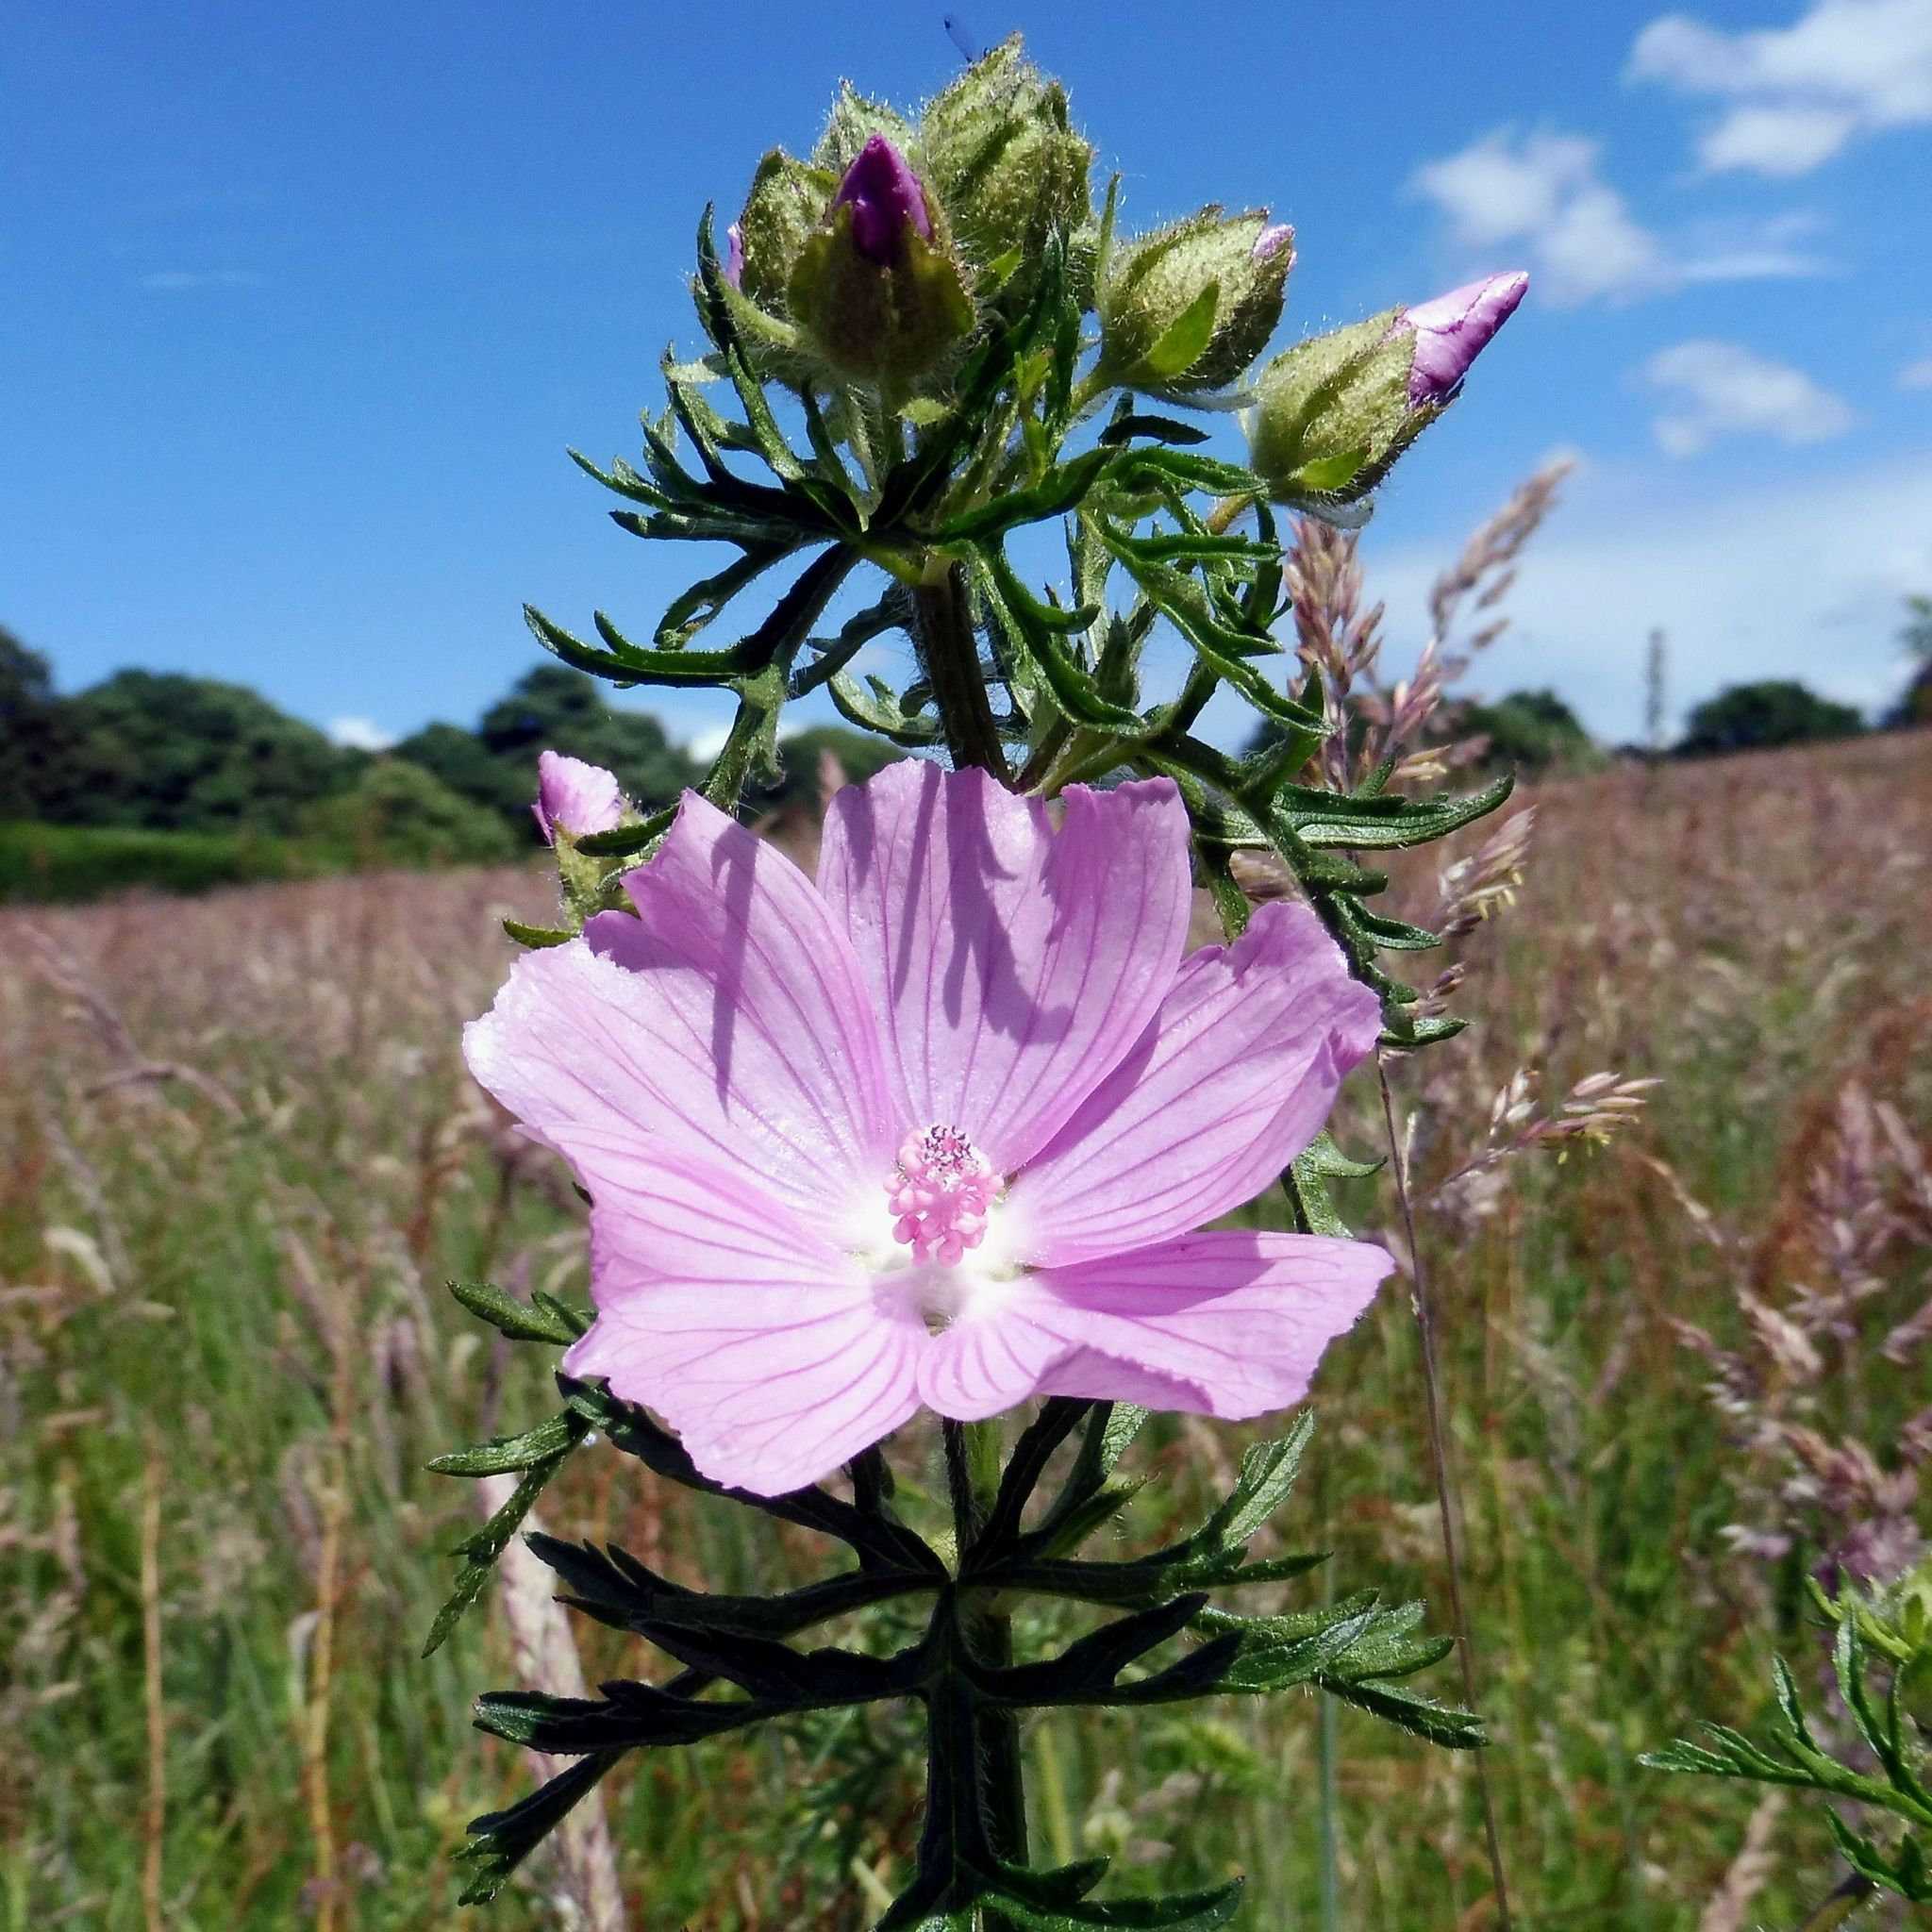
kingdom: Plantae
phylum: Tracheophyta
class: Magnoliopsida
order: Malvales
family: Malvaceae
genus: Malva
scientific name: Malva moschata
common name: Musk mallow
